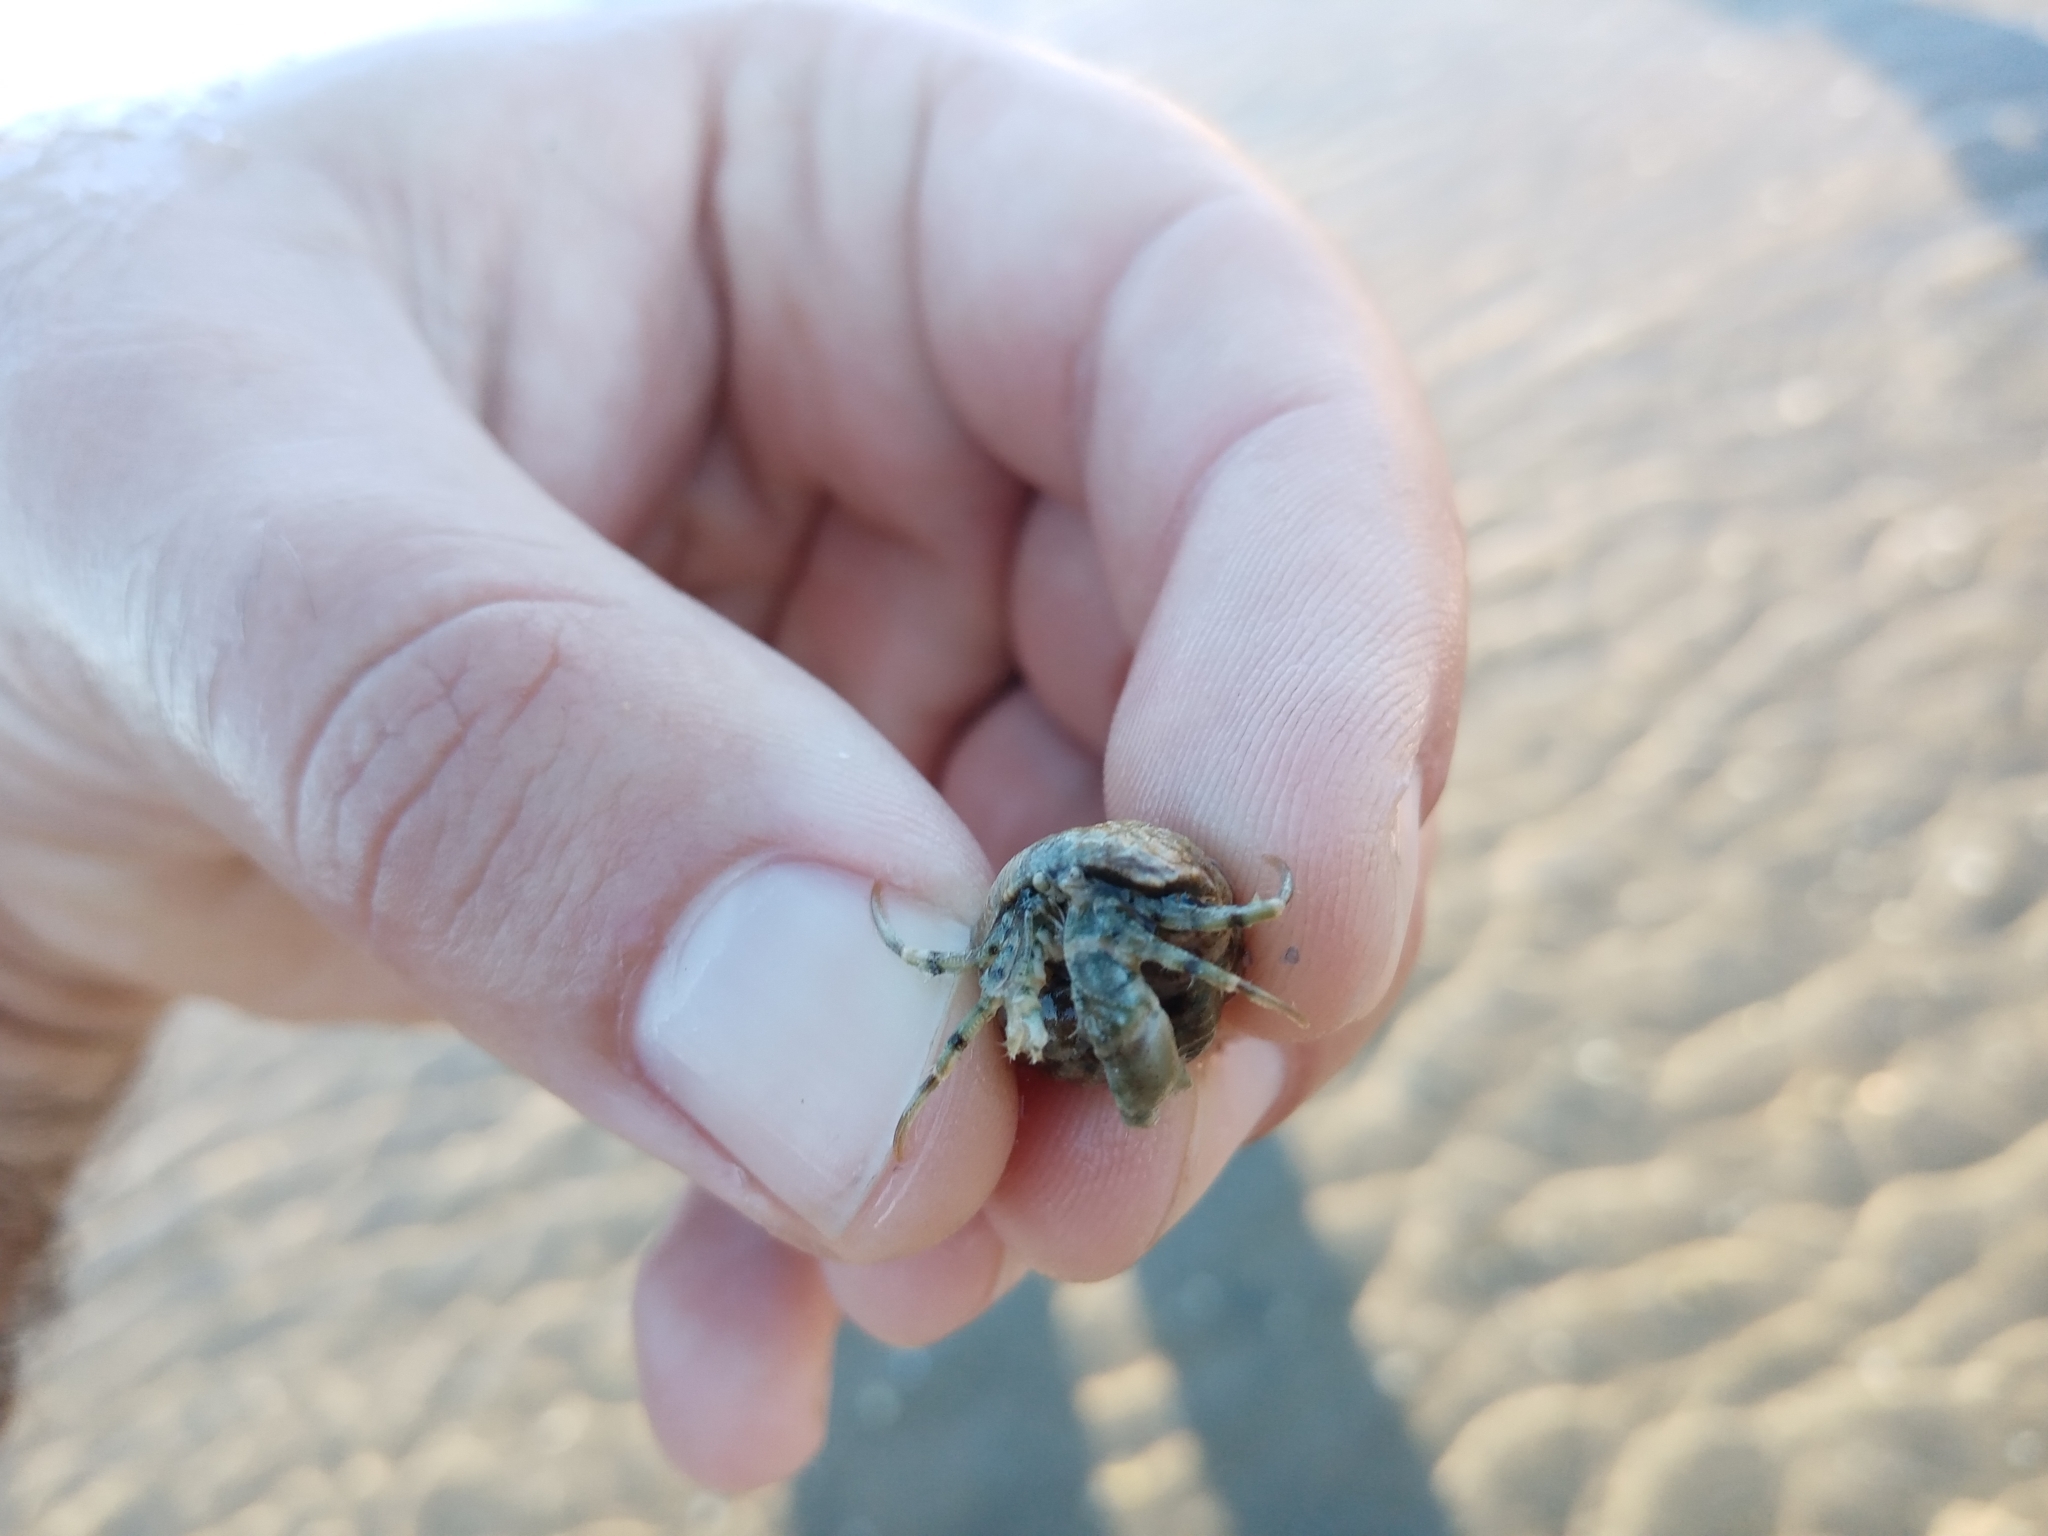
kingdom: Animalia
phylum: Arthropoda
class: Malacostraca
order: Decapoda
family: Diogenidae
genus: Diogenes
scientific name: Diogenes pugilator
